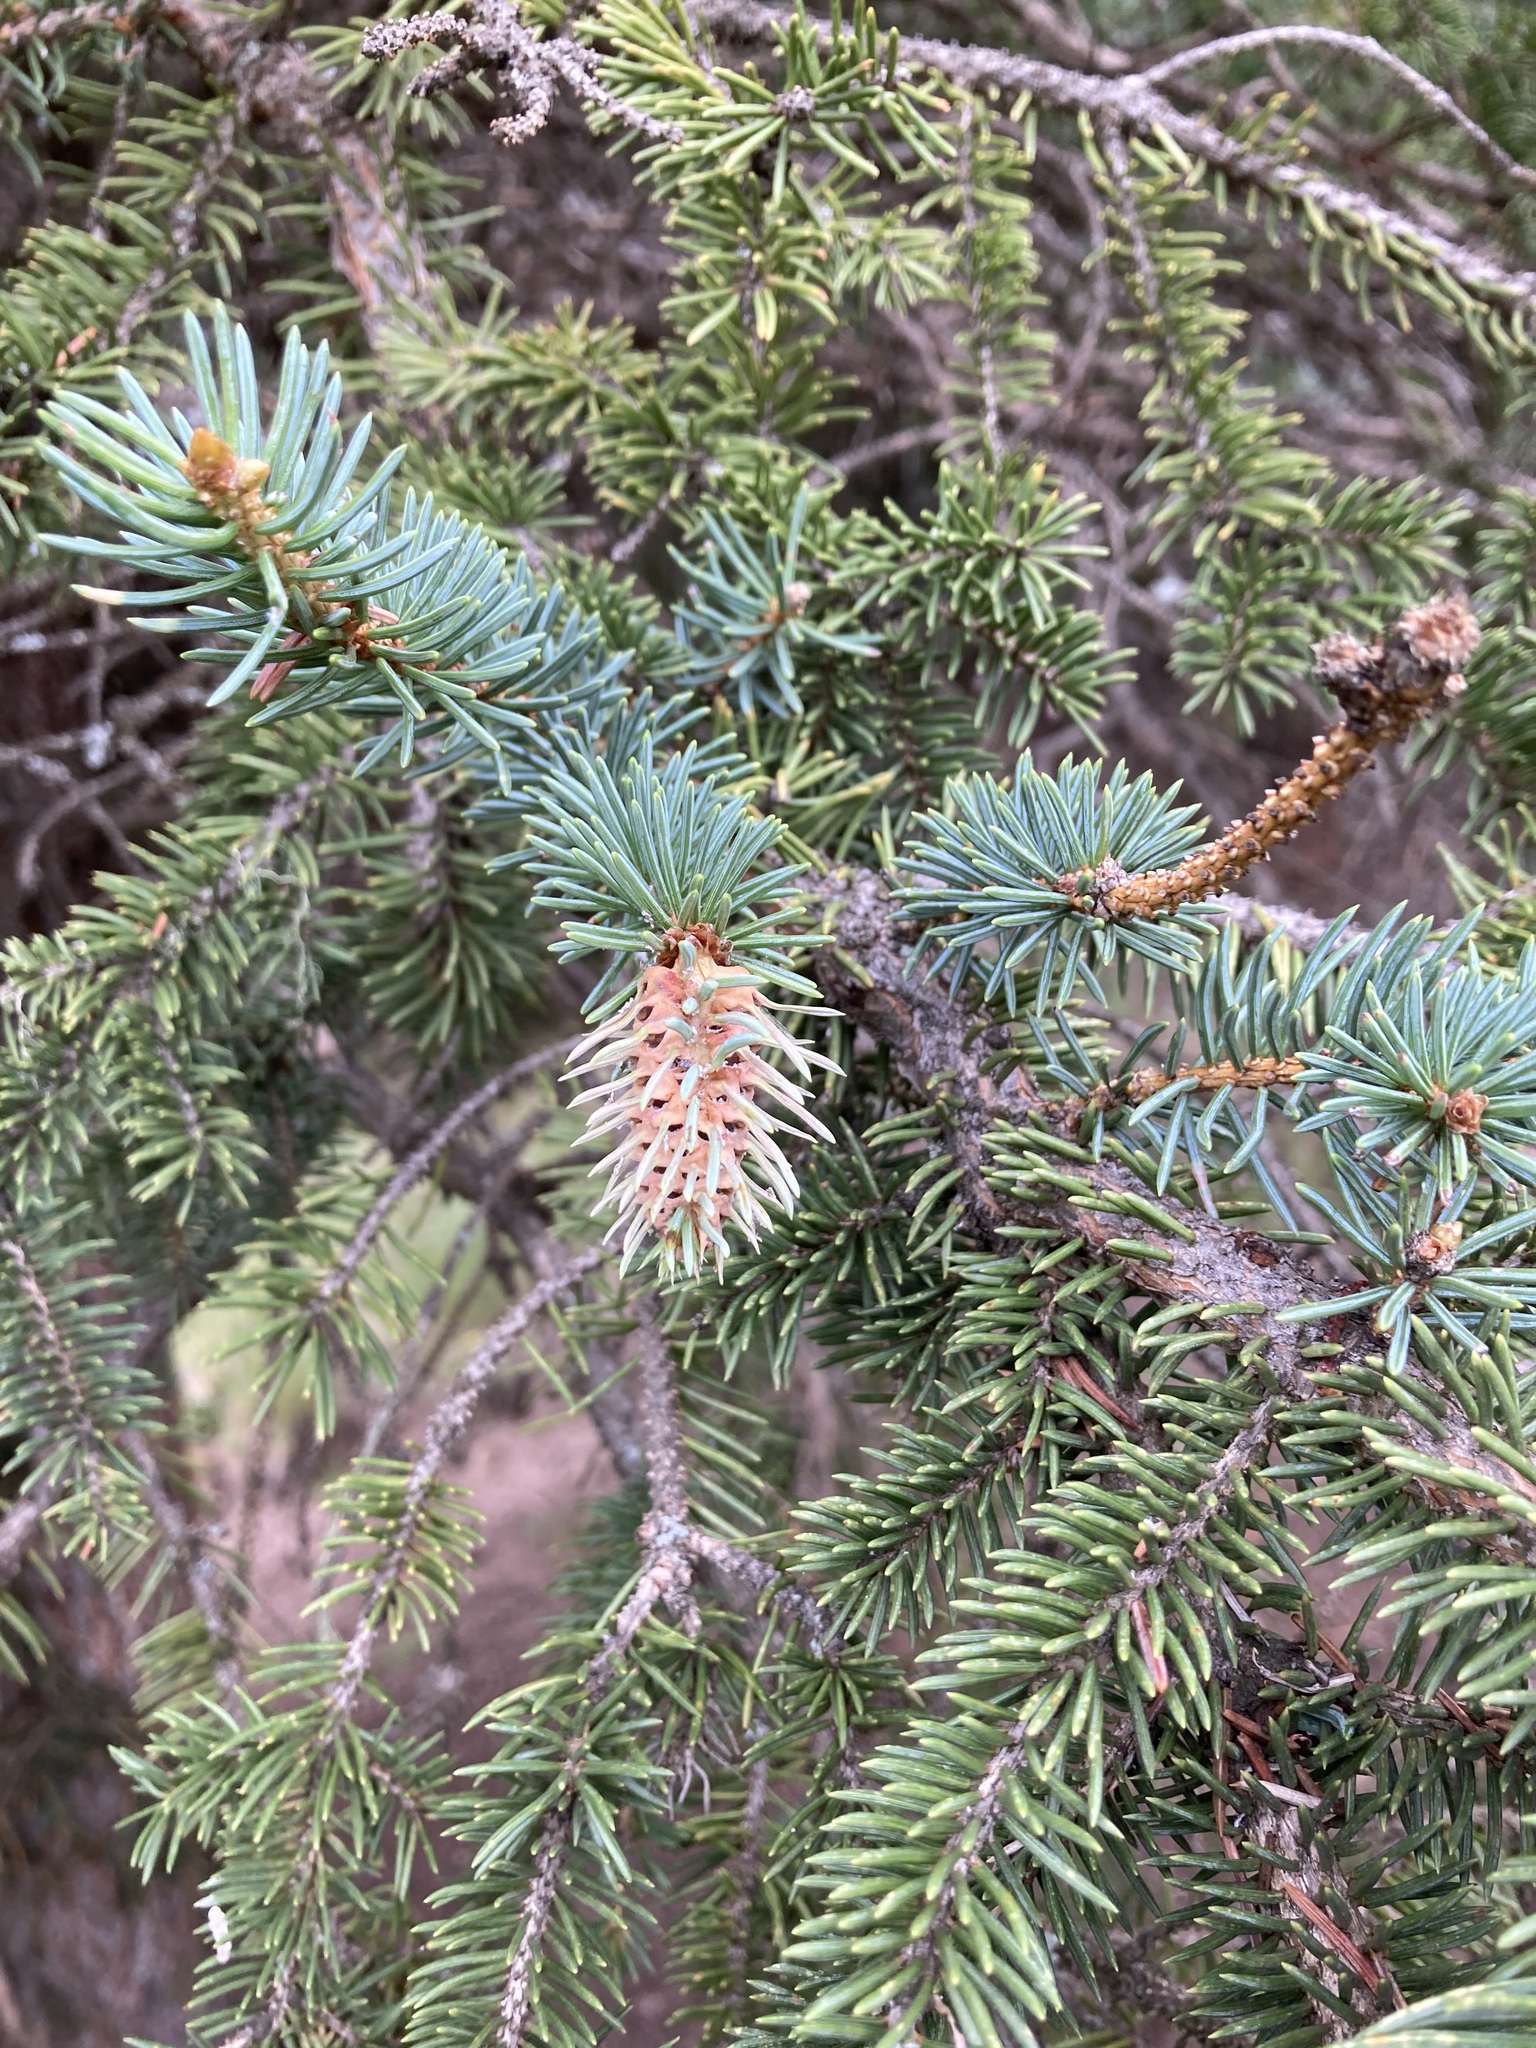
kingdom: Animalia
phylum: Arthropoda
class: Insecta
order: Hemiptera
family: Adelgidae
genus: Adelges
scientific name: Adelges cooleyi
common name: Cooley spruce gall adelgid
